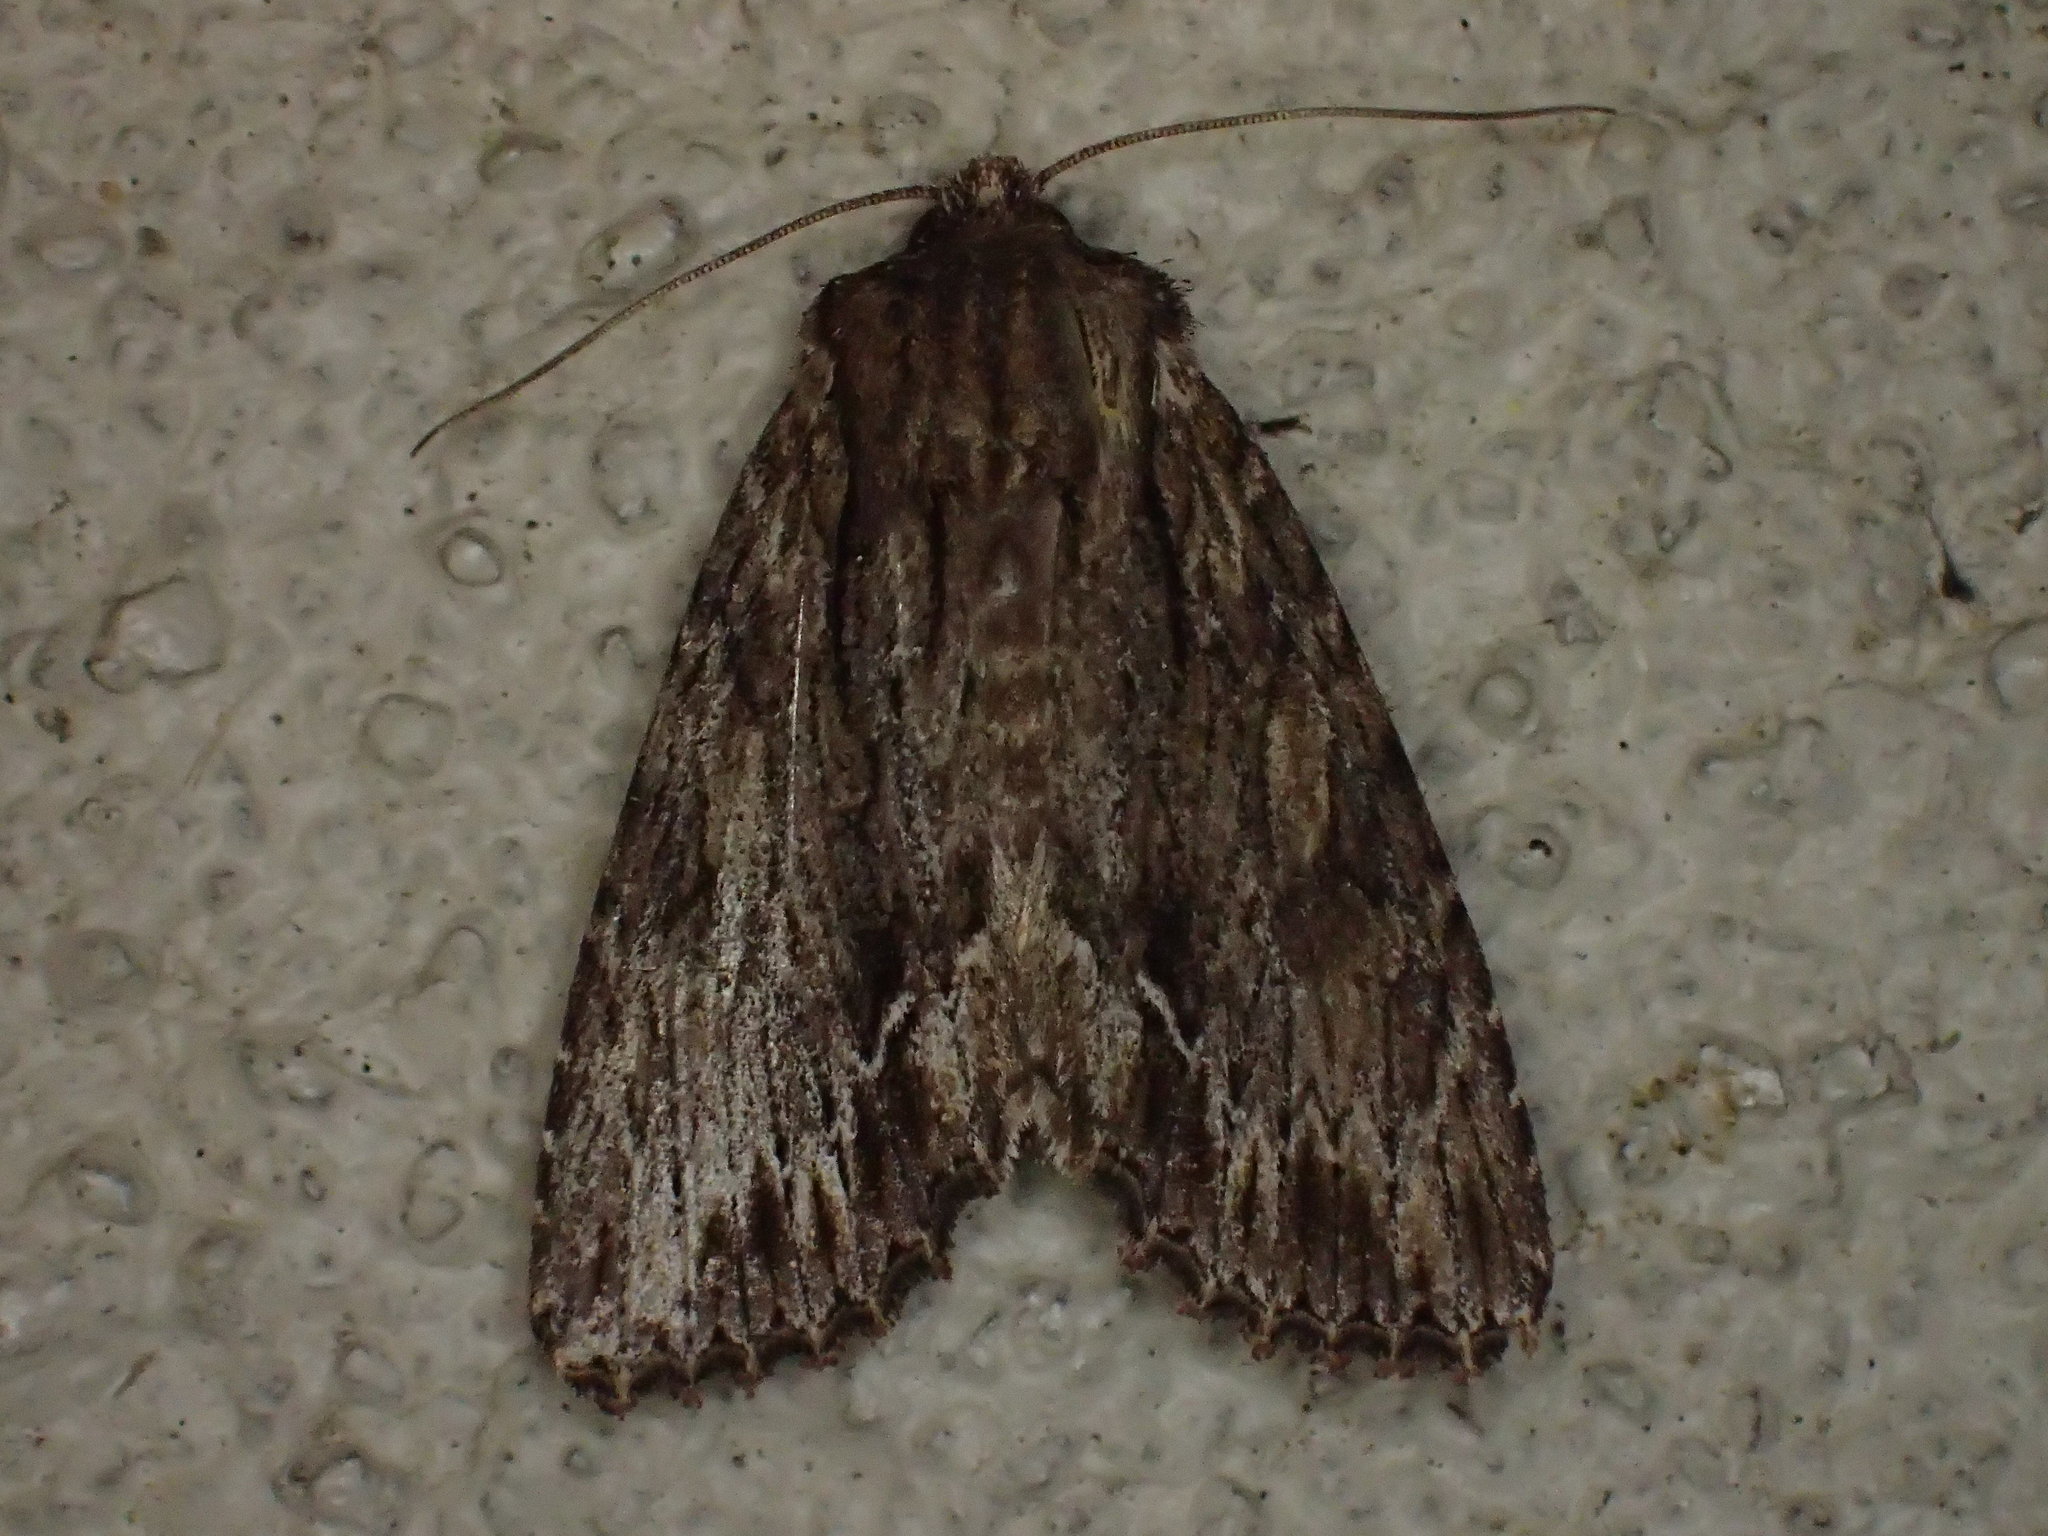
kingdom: Animalia
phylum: Arthropoda
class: Insecta
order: Lepidoptera
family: Noctuidae
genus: Achatia
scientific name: Achatia confusa
